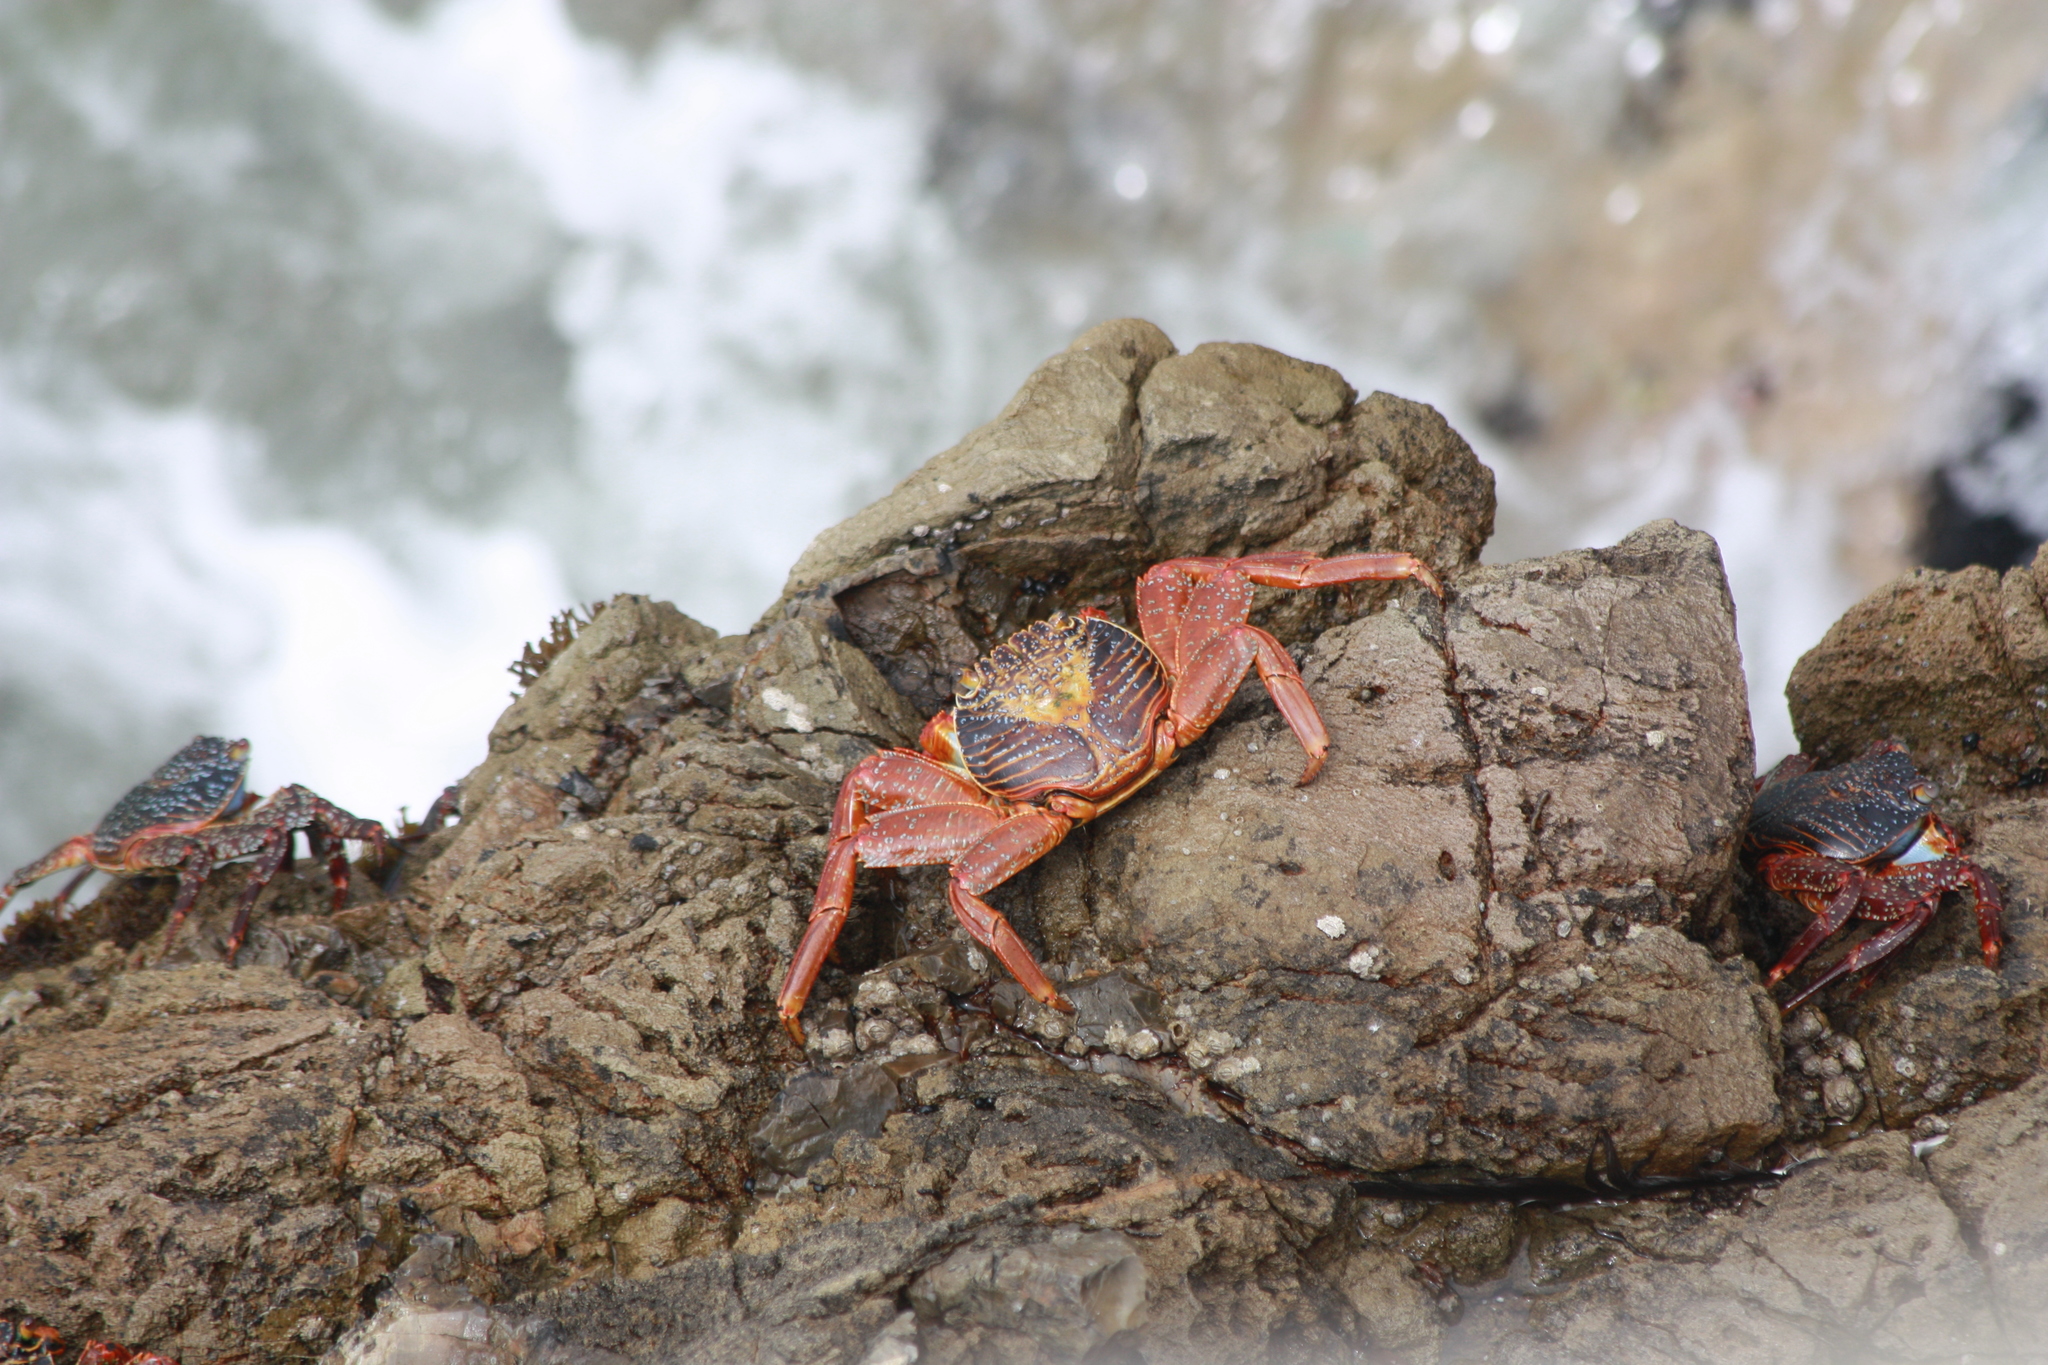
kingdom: Animalia
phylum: Arthropoda
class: Malacostraca
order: Decapoda
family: Grapsidae
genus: Grapsus
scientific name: Grapsus grapsus
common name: Sally lightfoot
